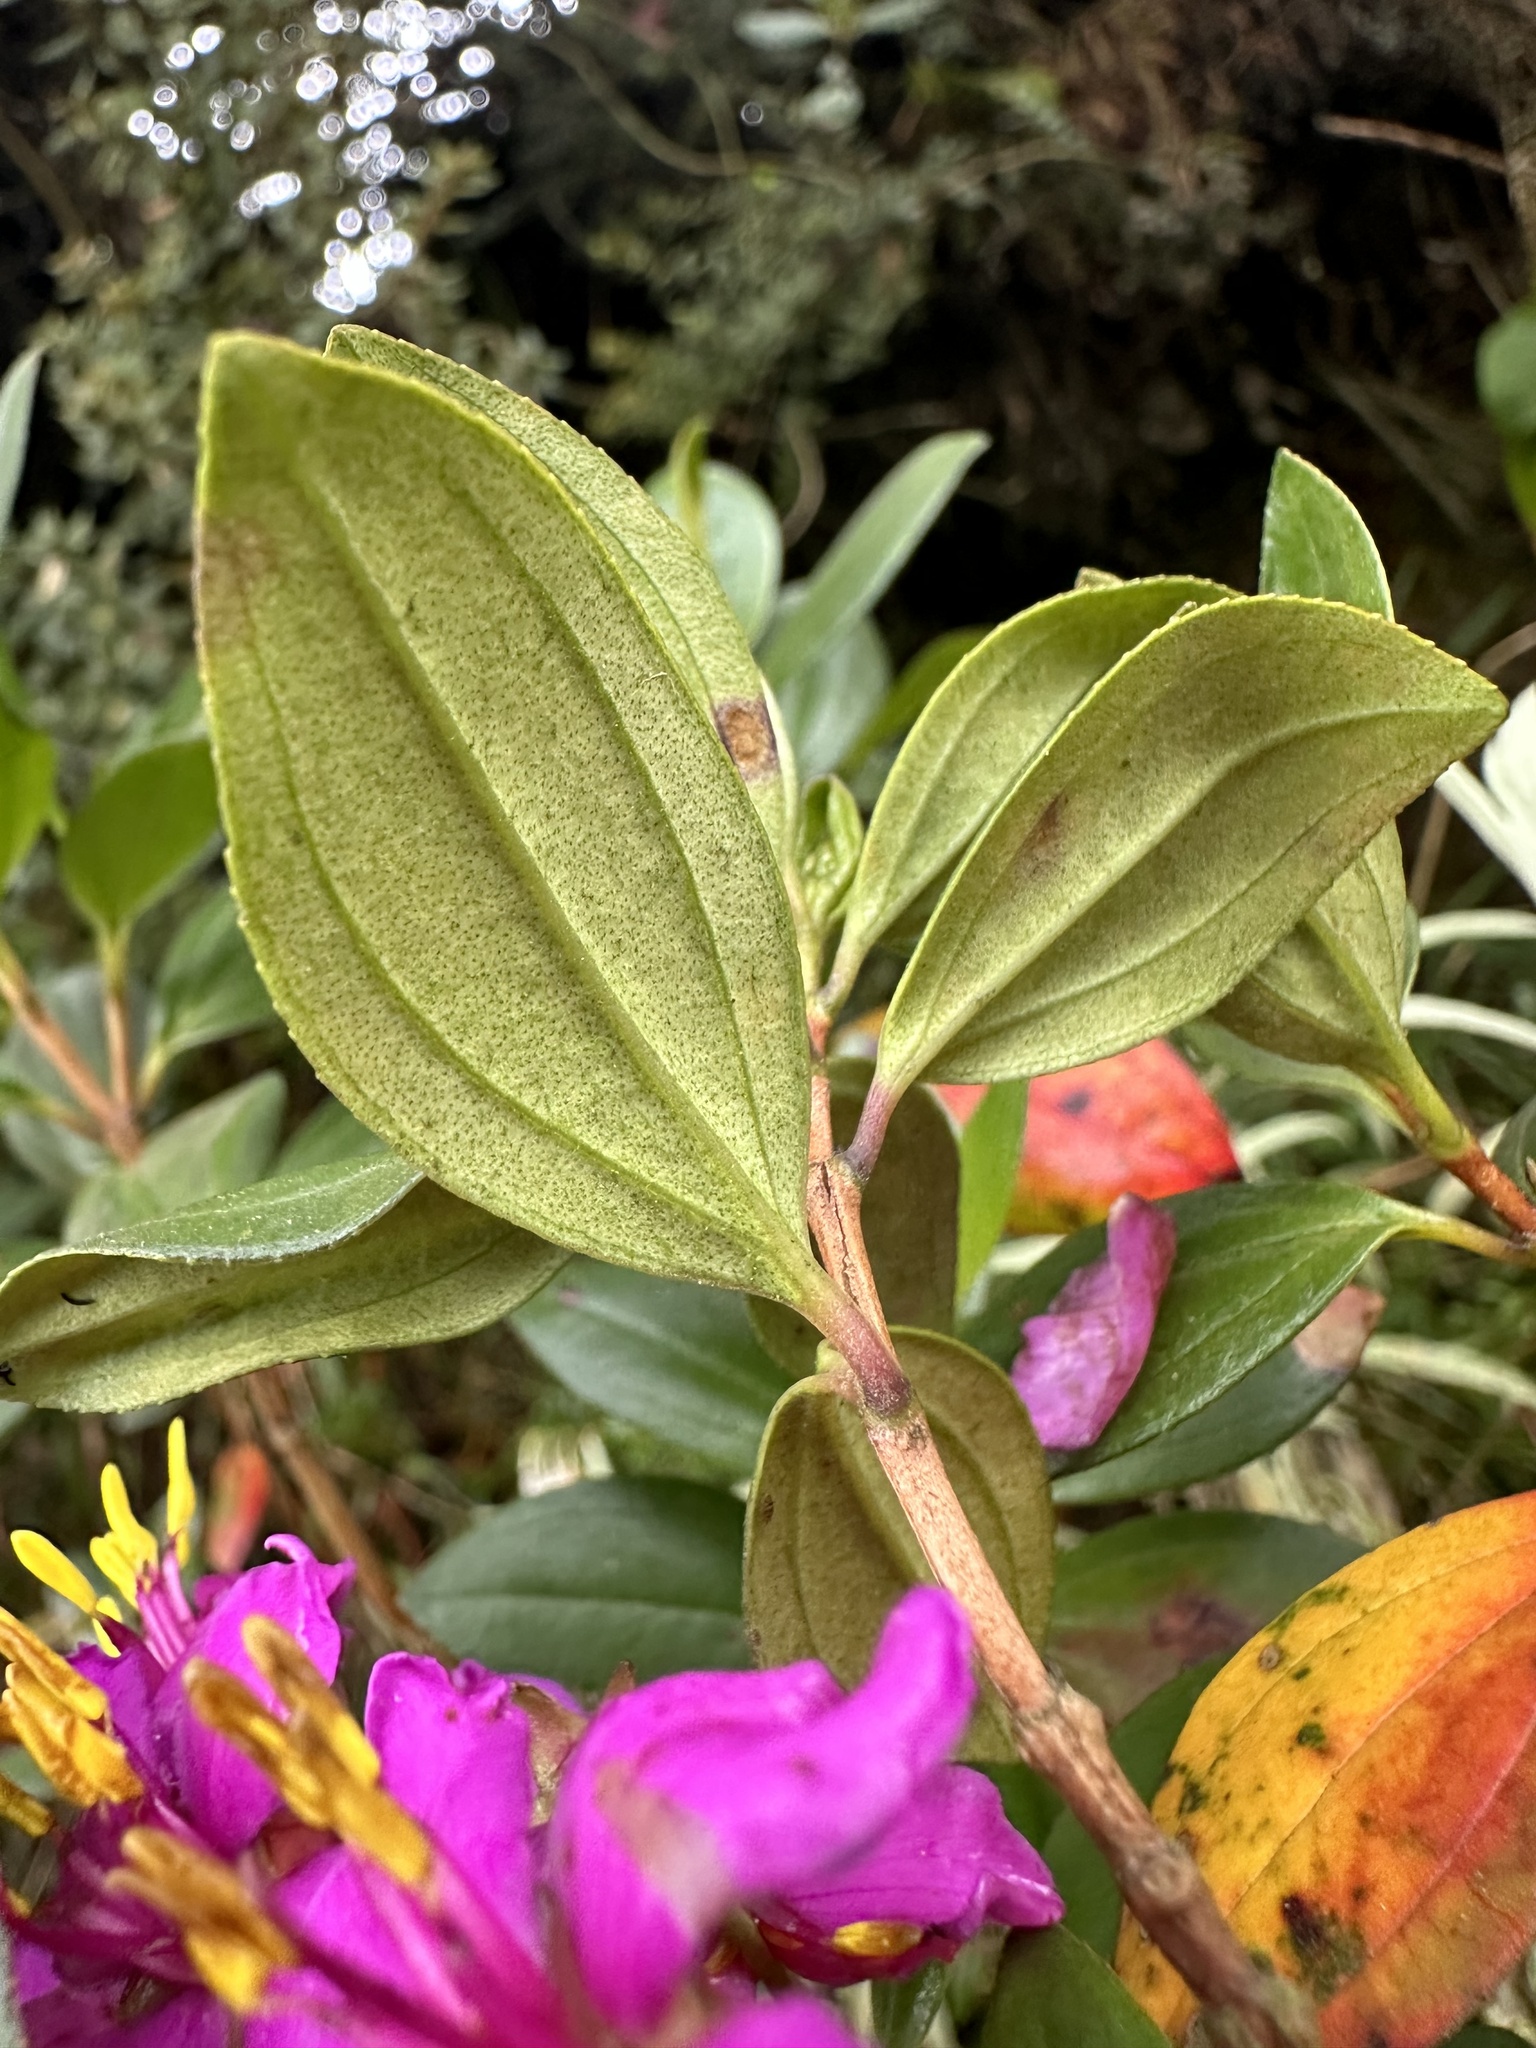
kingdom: Plantae
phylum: Tracheophyta
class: Magnoliopsida
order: Myrtales
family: Melastomataceae
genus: Bucquetia
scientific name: Bucquetia glutinosa
